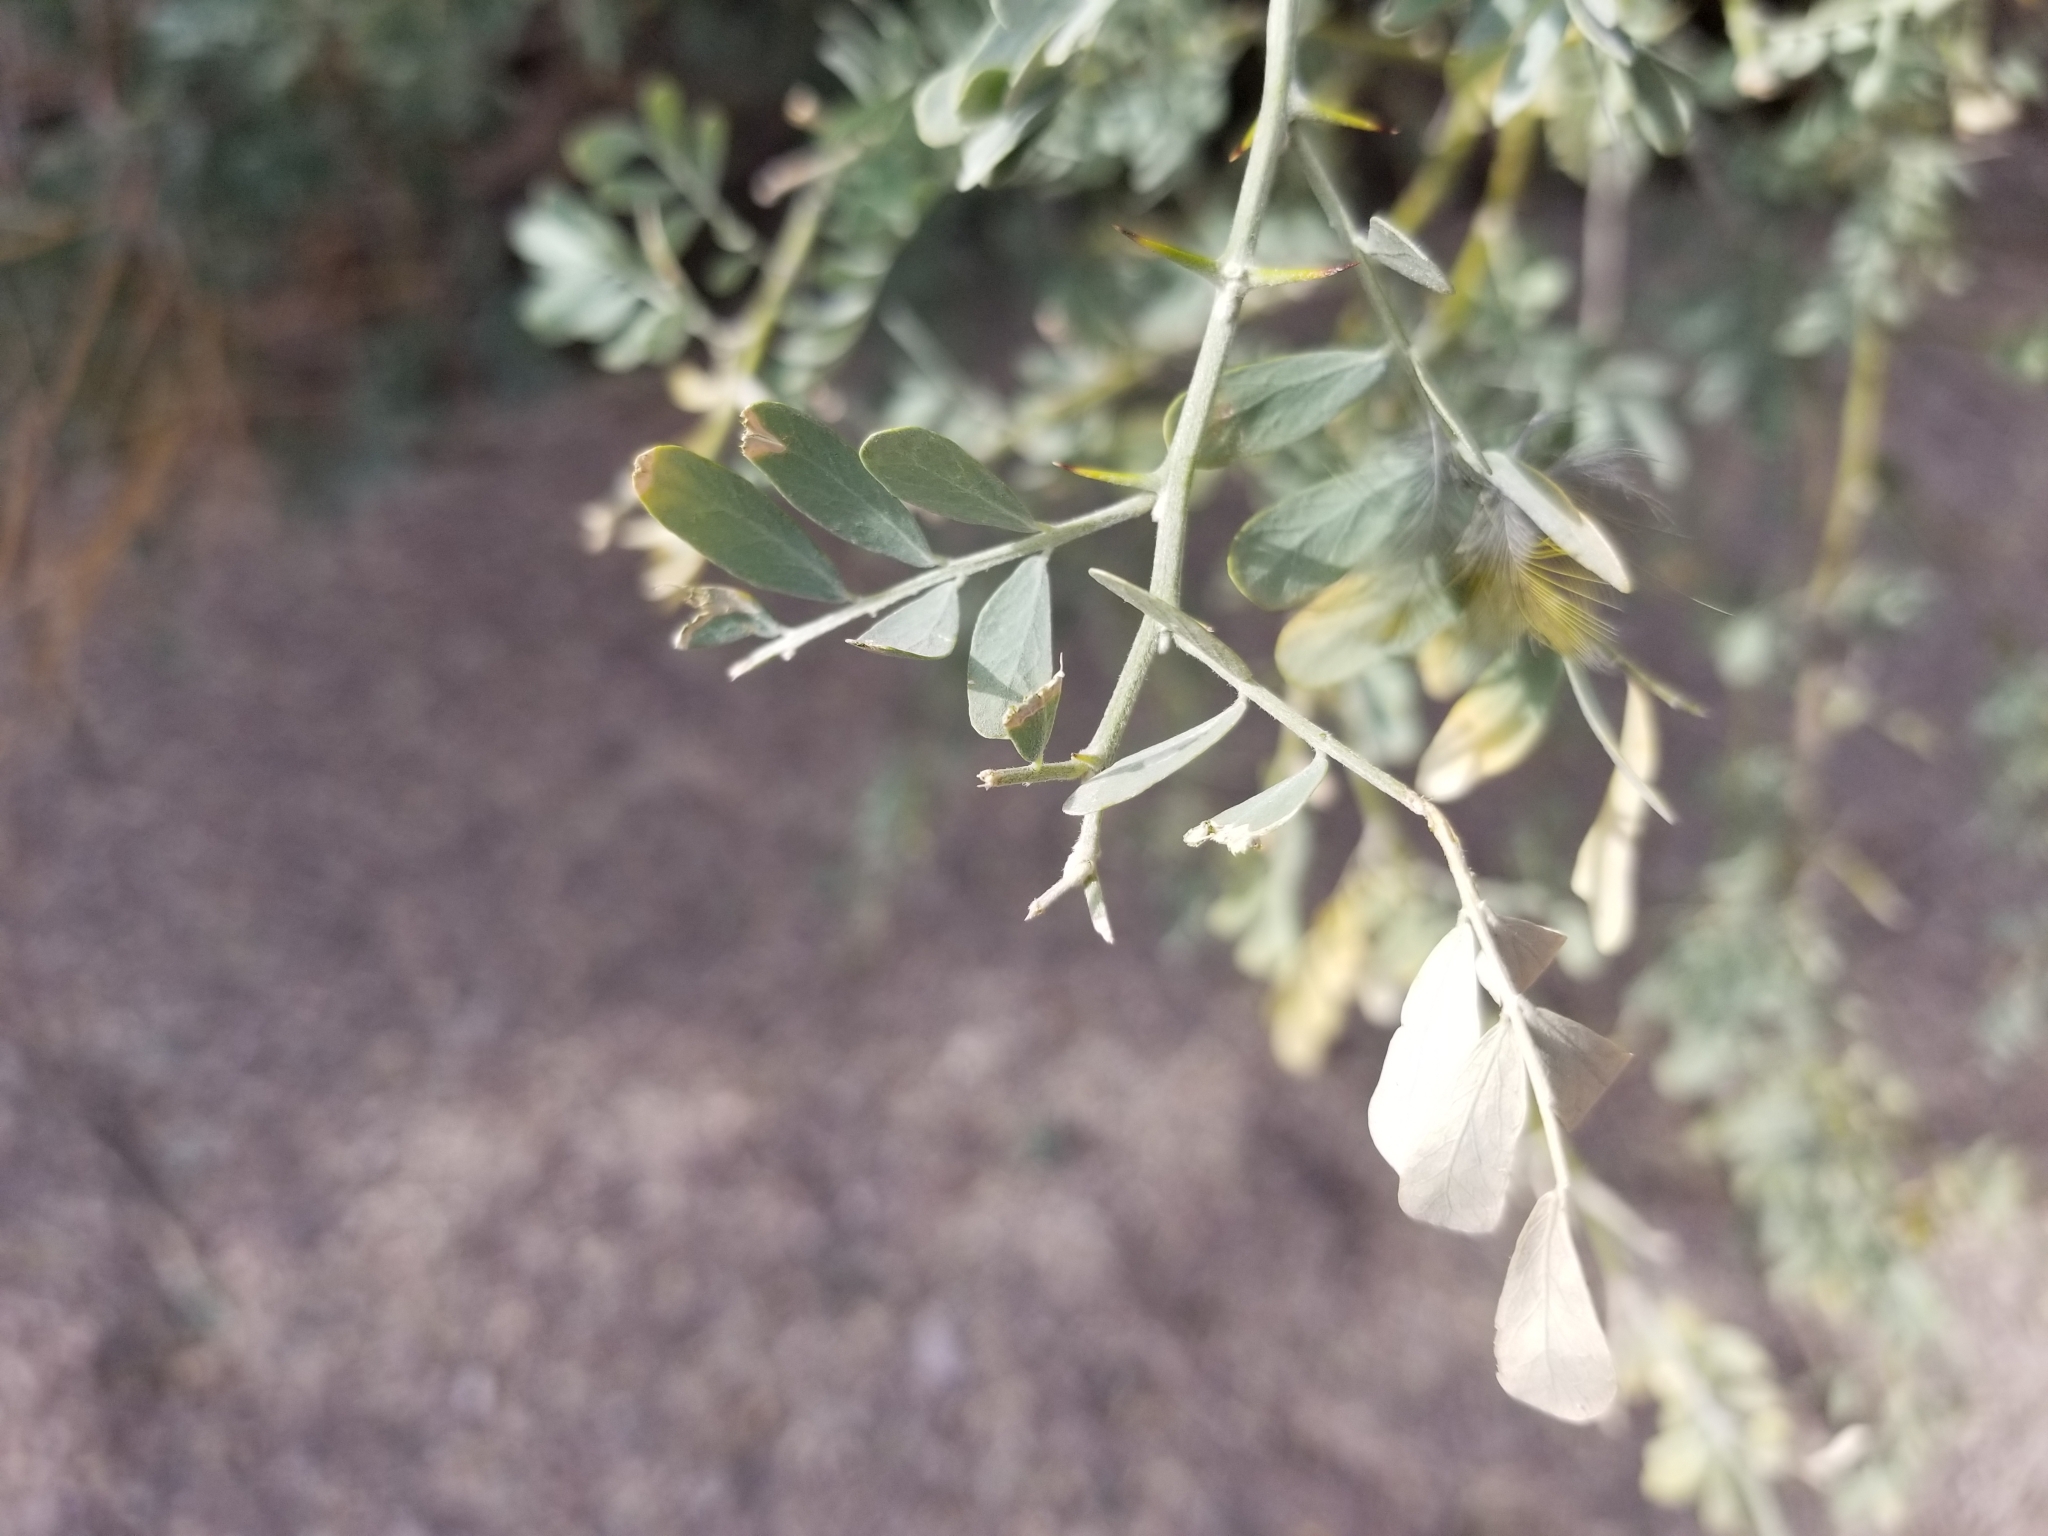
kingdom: Plantae
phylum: Tracheophyta
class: Magnoliopsida
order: Fabales
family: Fabaceae
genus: Olneya
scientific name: Olneya tesota
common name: Desert ironwood
